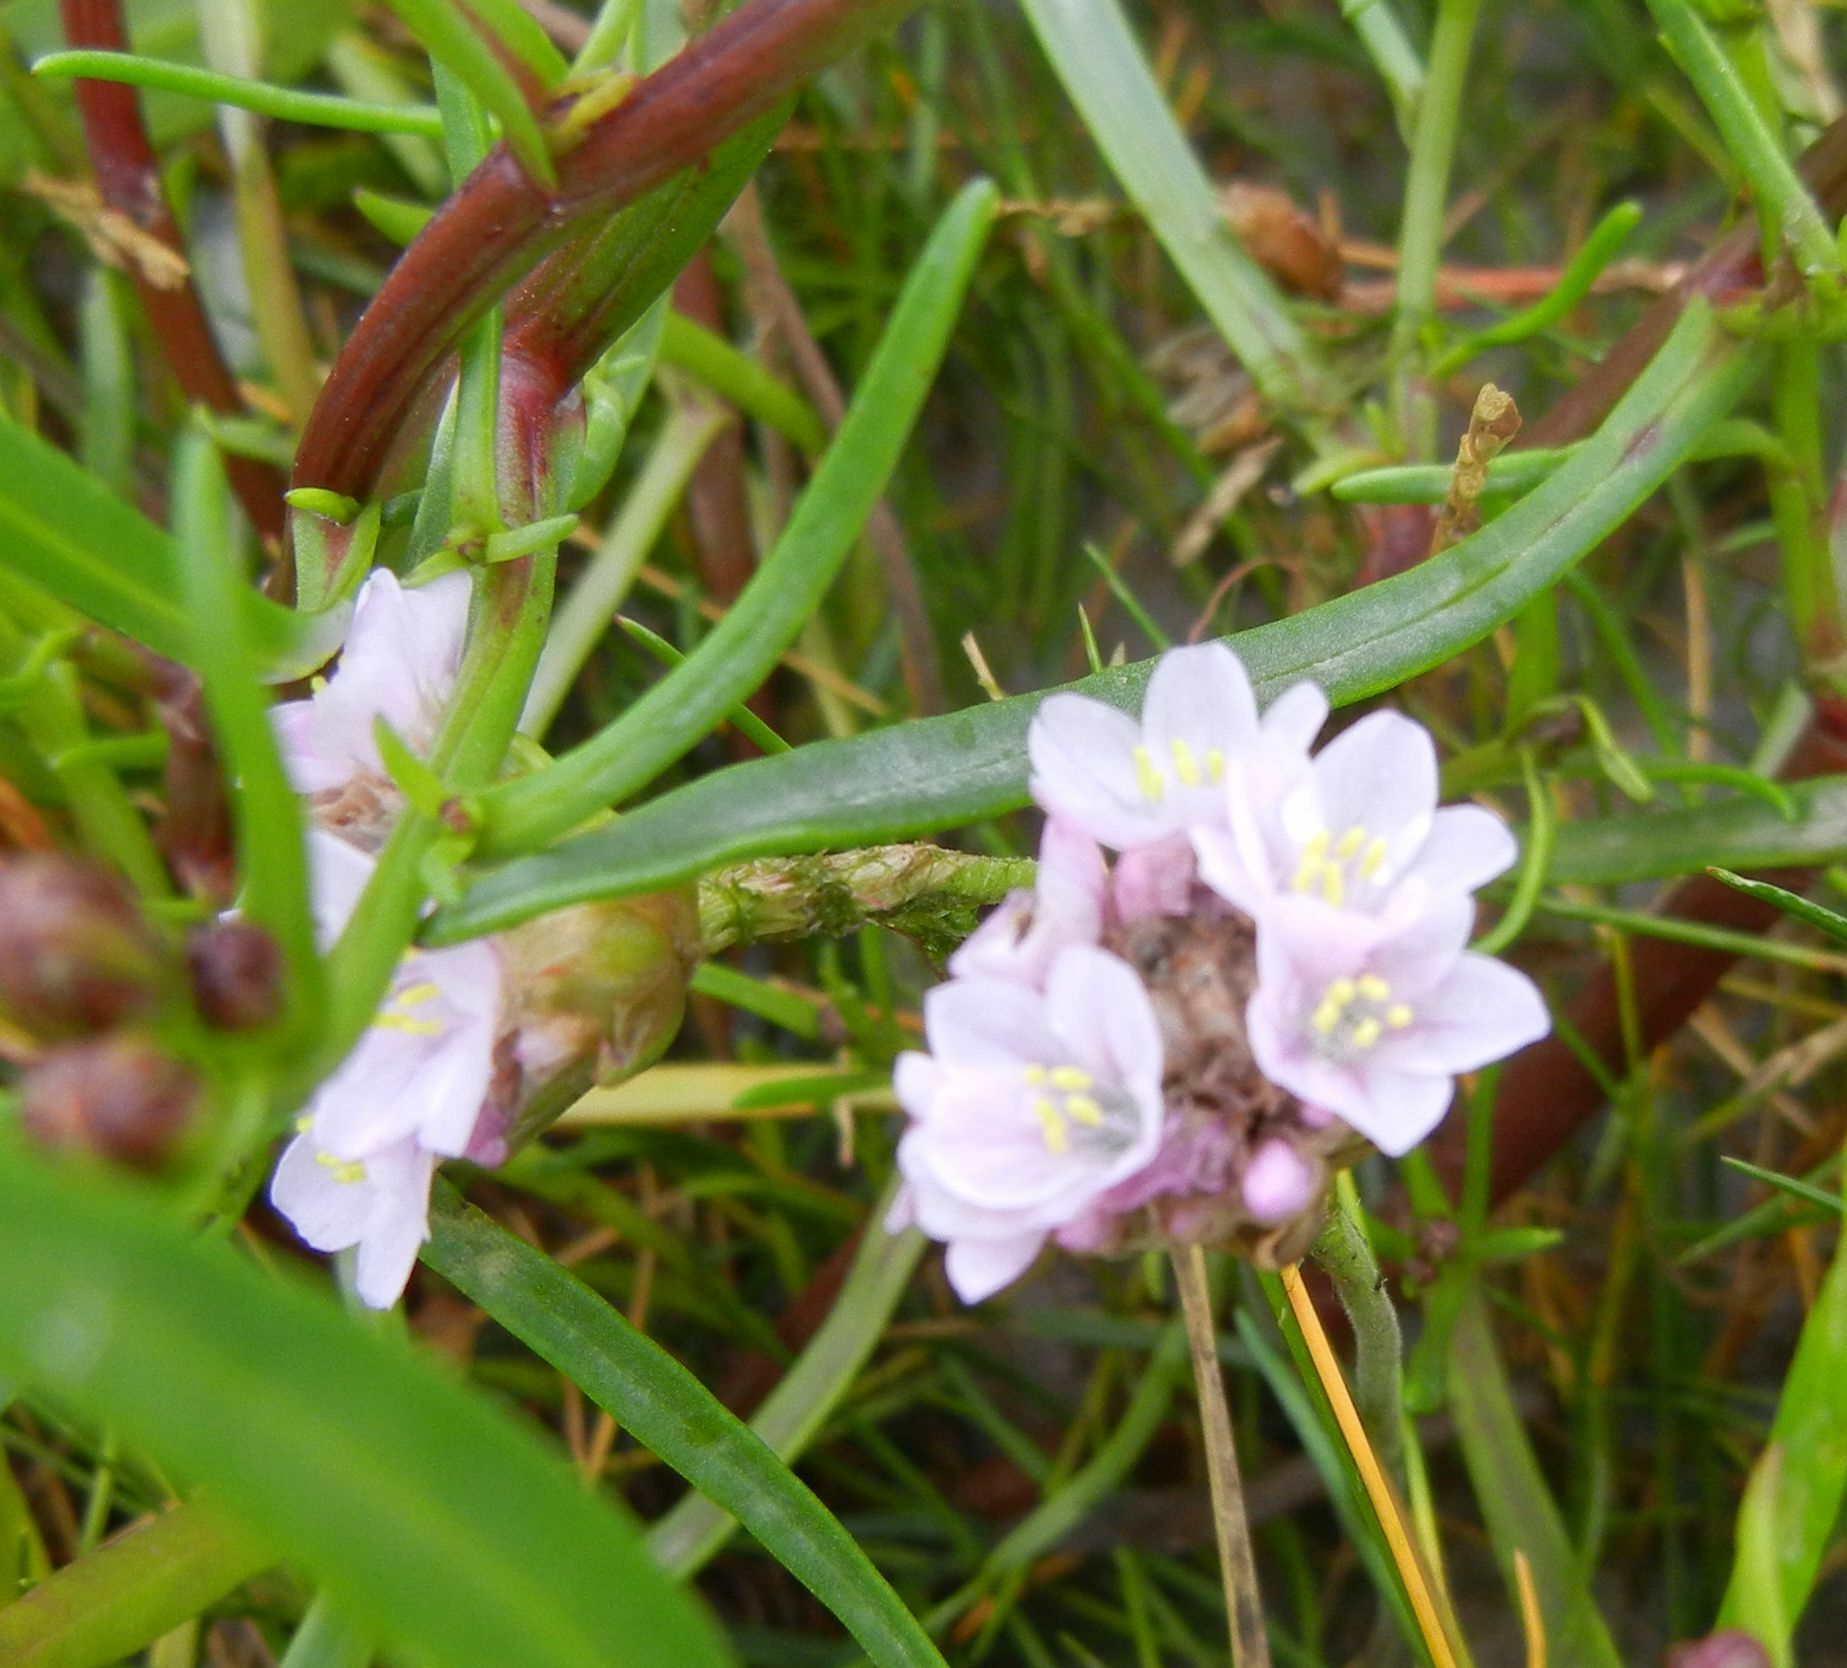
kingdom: Plantae
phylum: Tracheophyta
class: Magnoliopsida
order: Caryophyllales
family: Plumbaginaceae
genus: Armeria
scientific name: Armeria maritima
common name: Thrift
